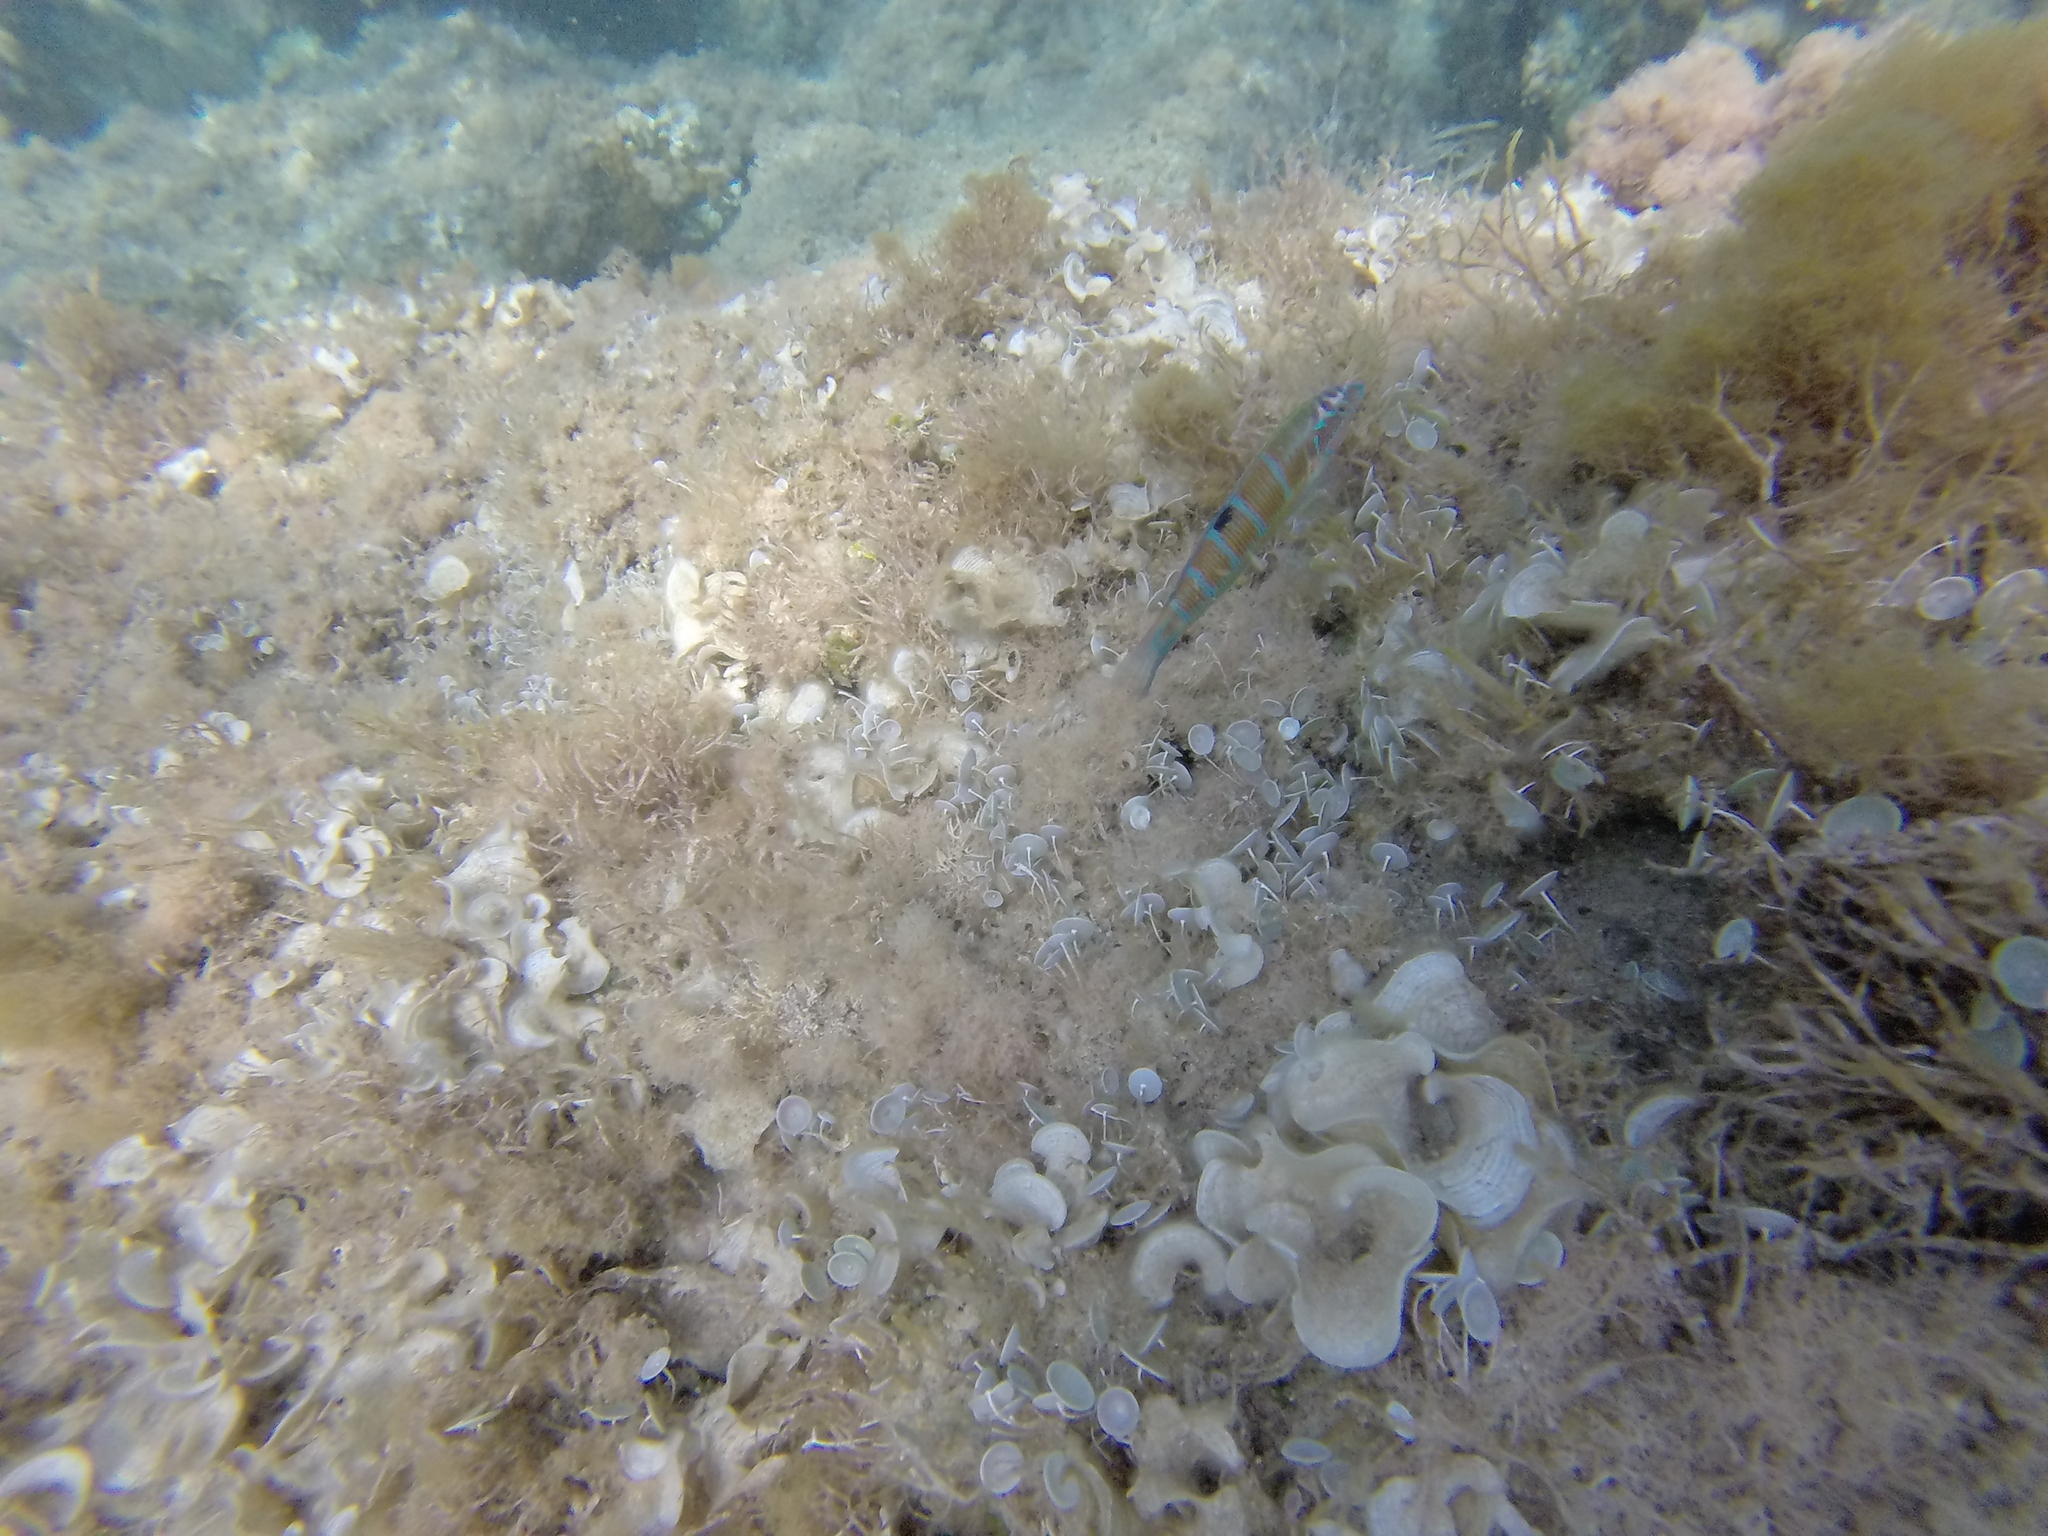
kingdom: Animalia
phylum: Chordata
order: Perciformes
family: Labridae
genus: Thalassoma
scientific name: Thalassoma pavo
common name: Ornate wrasse
